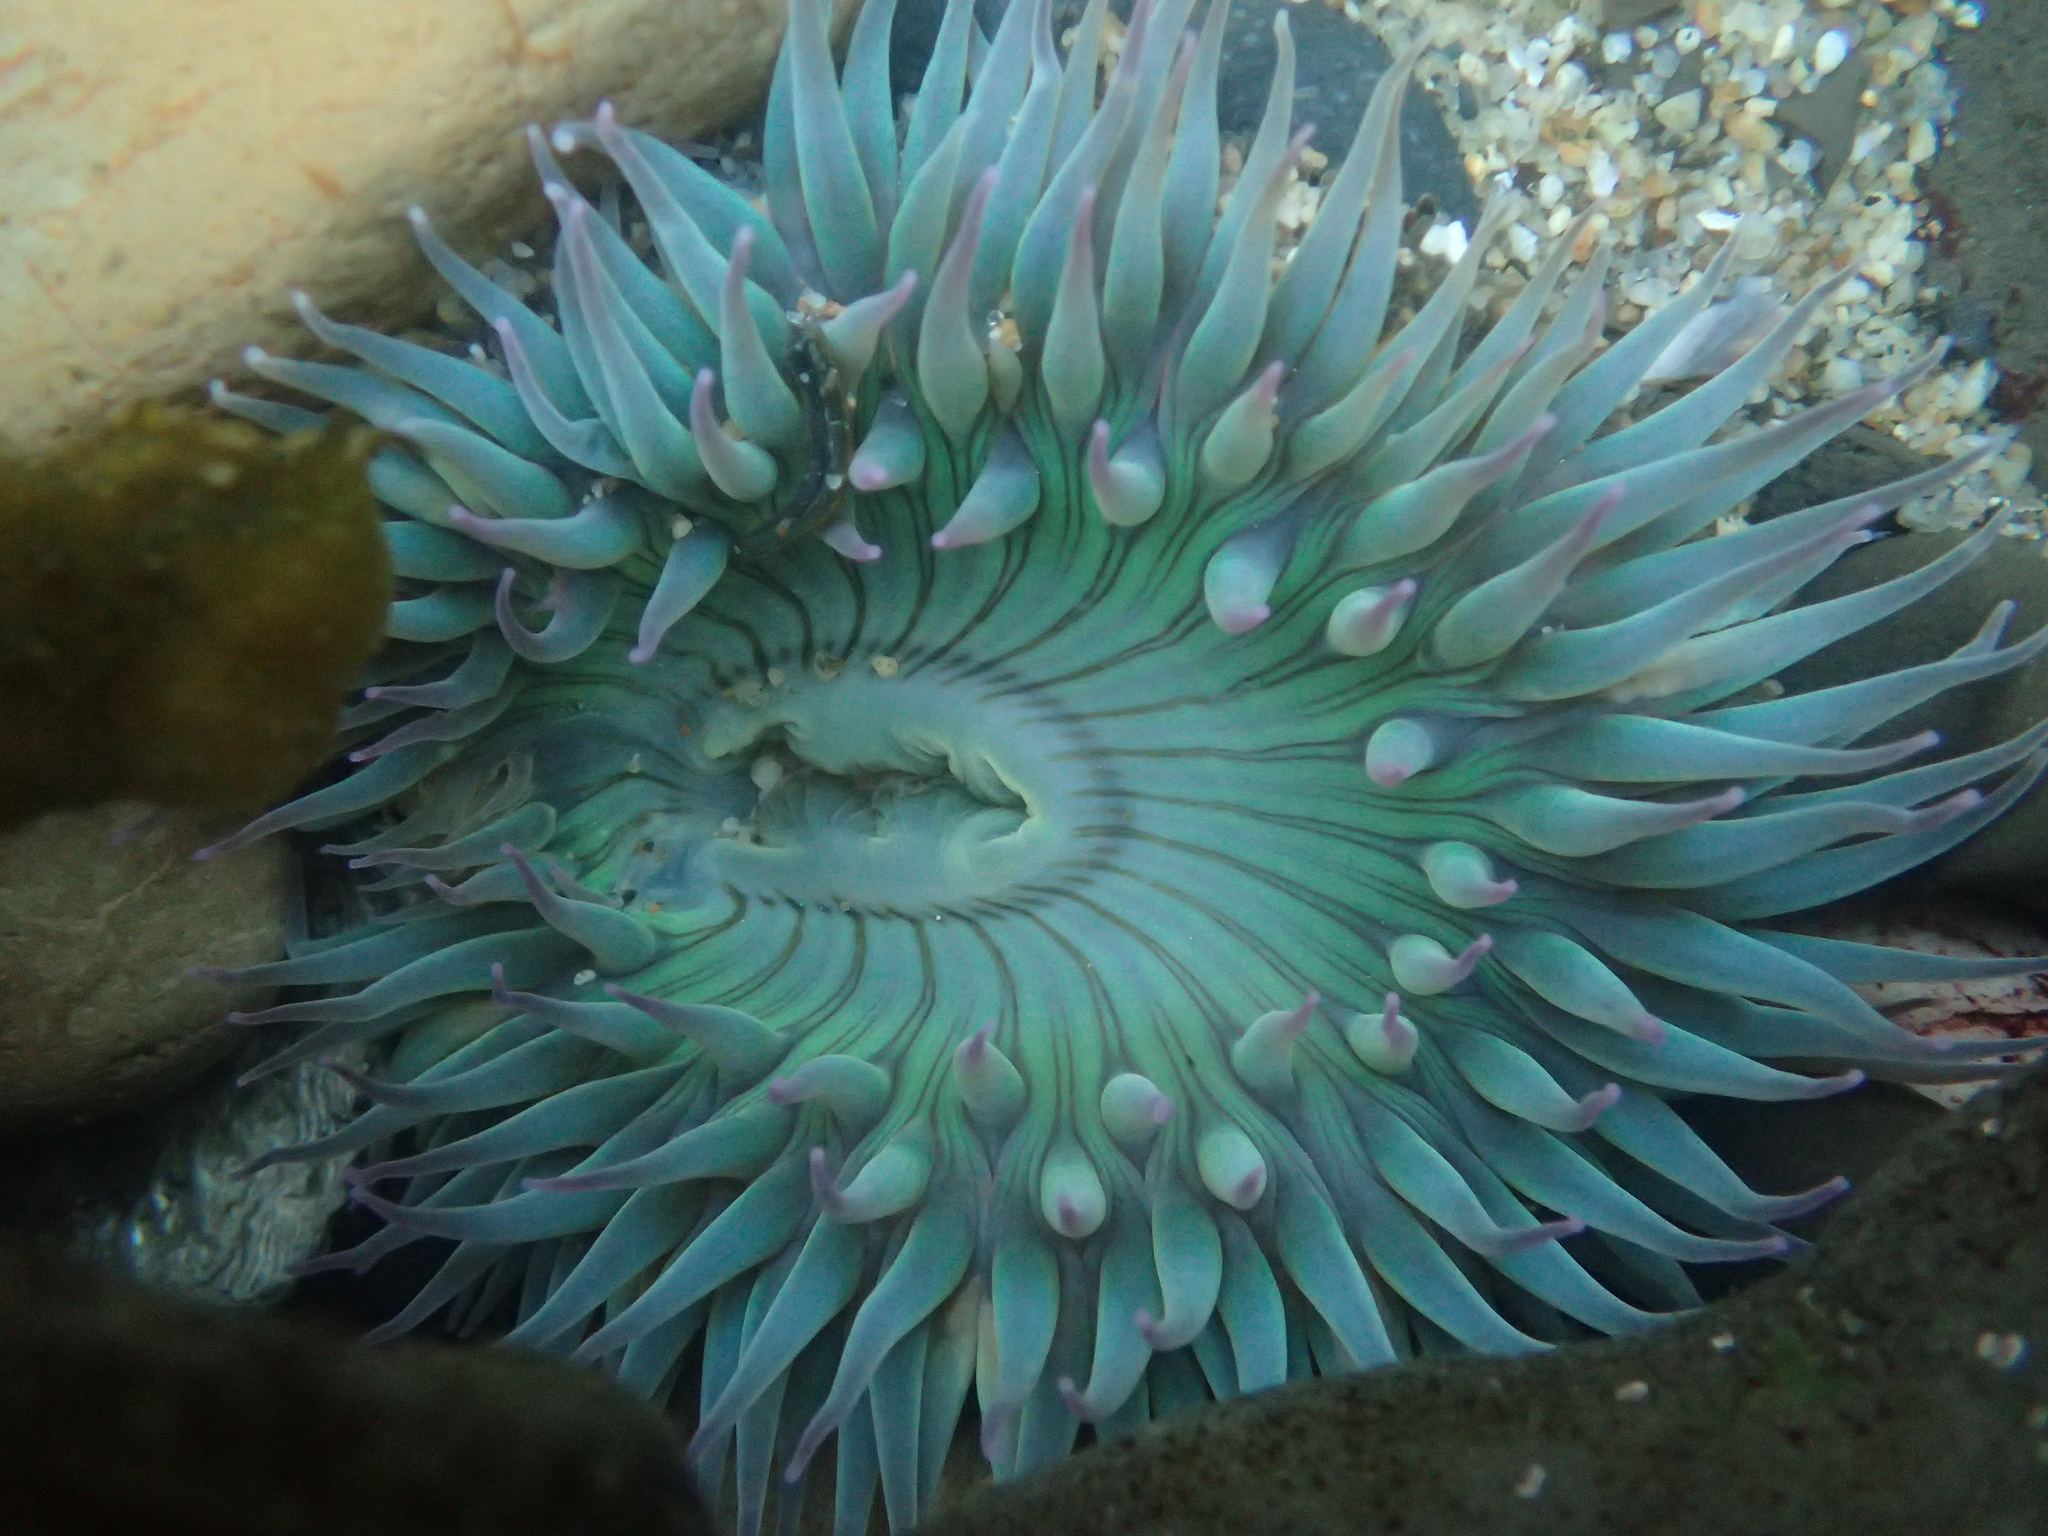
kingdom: Animalia
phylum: Cnidaria
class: Anthozoa
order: Actiniaria
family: Actiniidae
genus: Anthopleura
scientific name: Anthopleura sola
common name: Sun anemone
